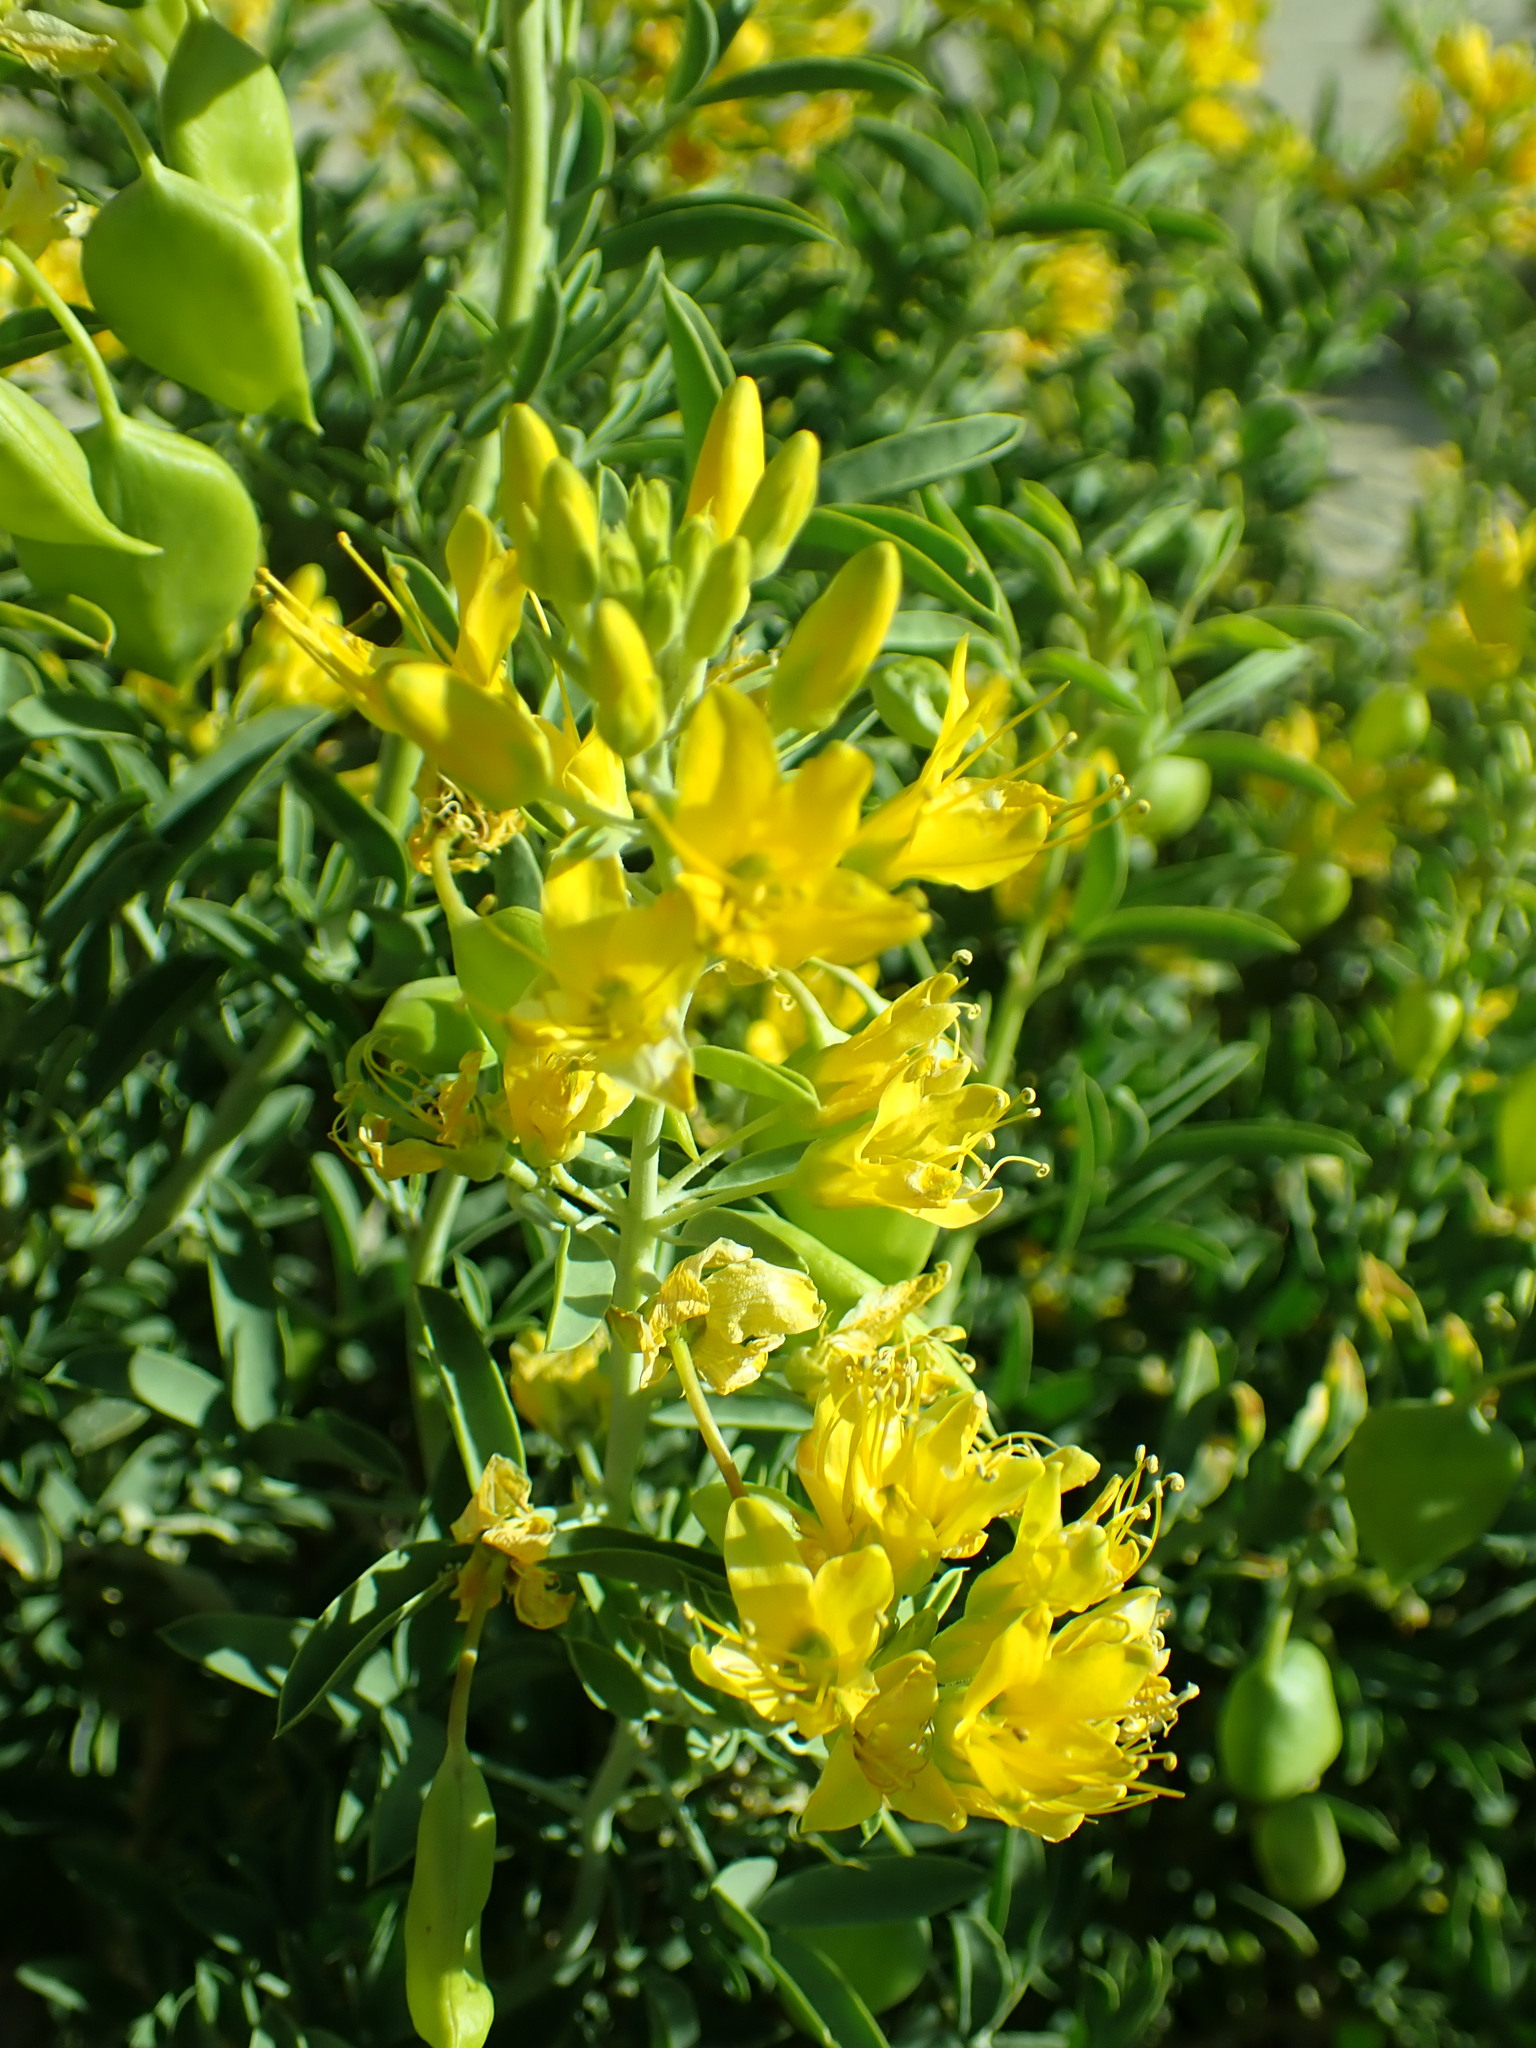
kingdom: Plantae
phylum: Tracheophyta
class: Magnoliopsida
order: Brassicales
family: Cleomaceae
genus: Cleomella
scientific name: Cleomella arborea
